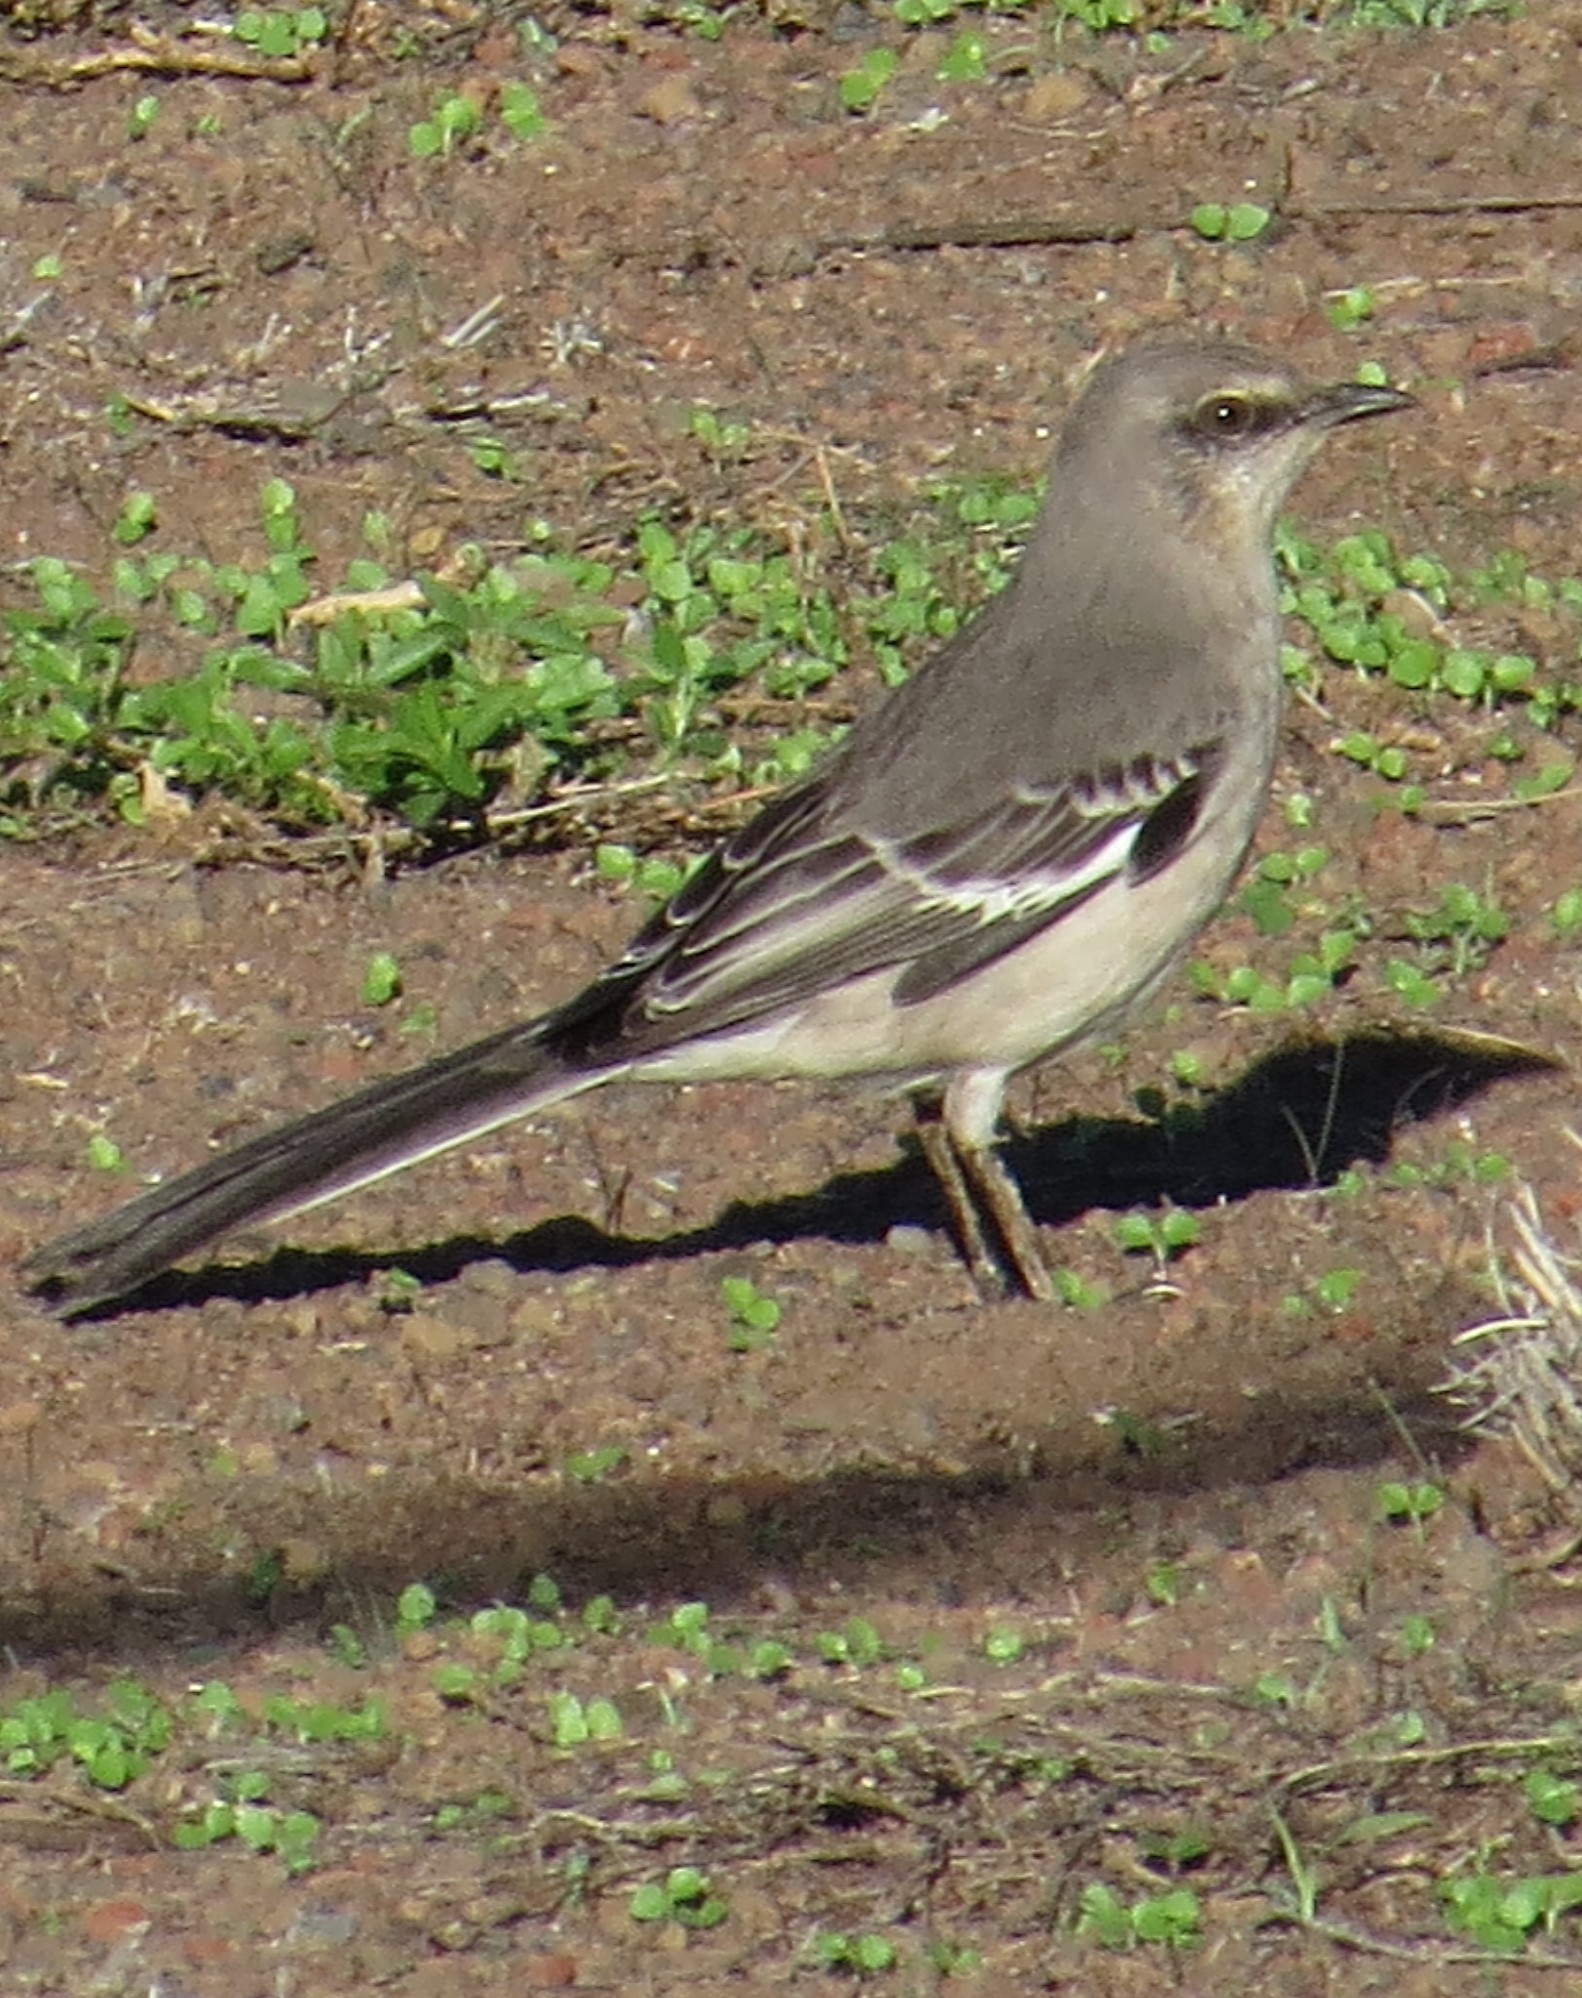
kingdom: Animalia
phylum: Chordata
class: Aves
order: Passeriformes
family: Mimidae
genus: Mimus
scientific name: Mimus polyglottos
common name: Northern mockingbird
